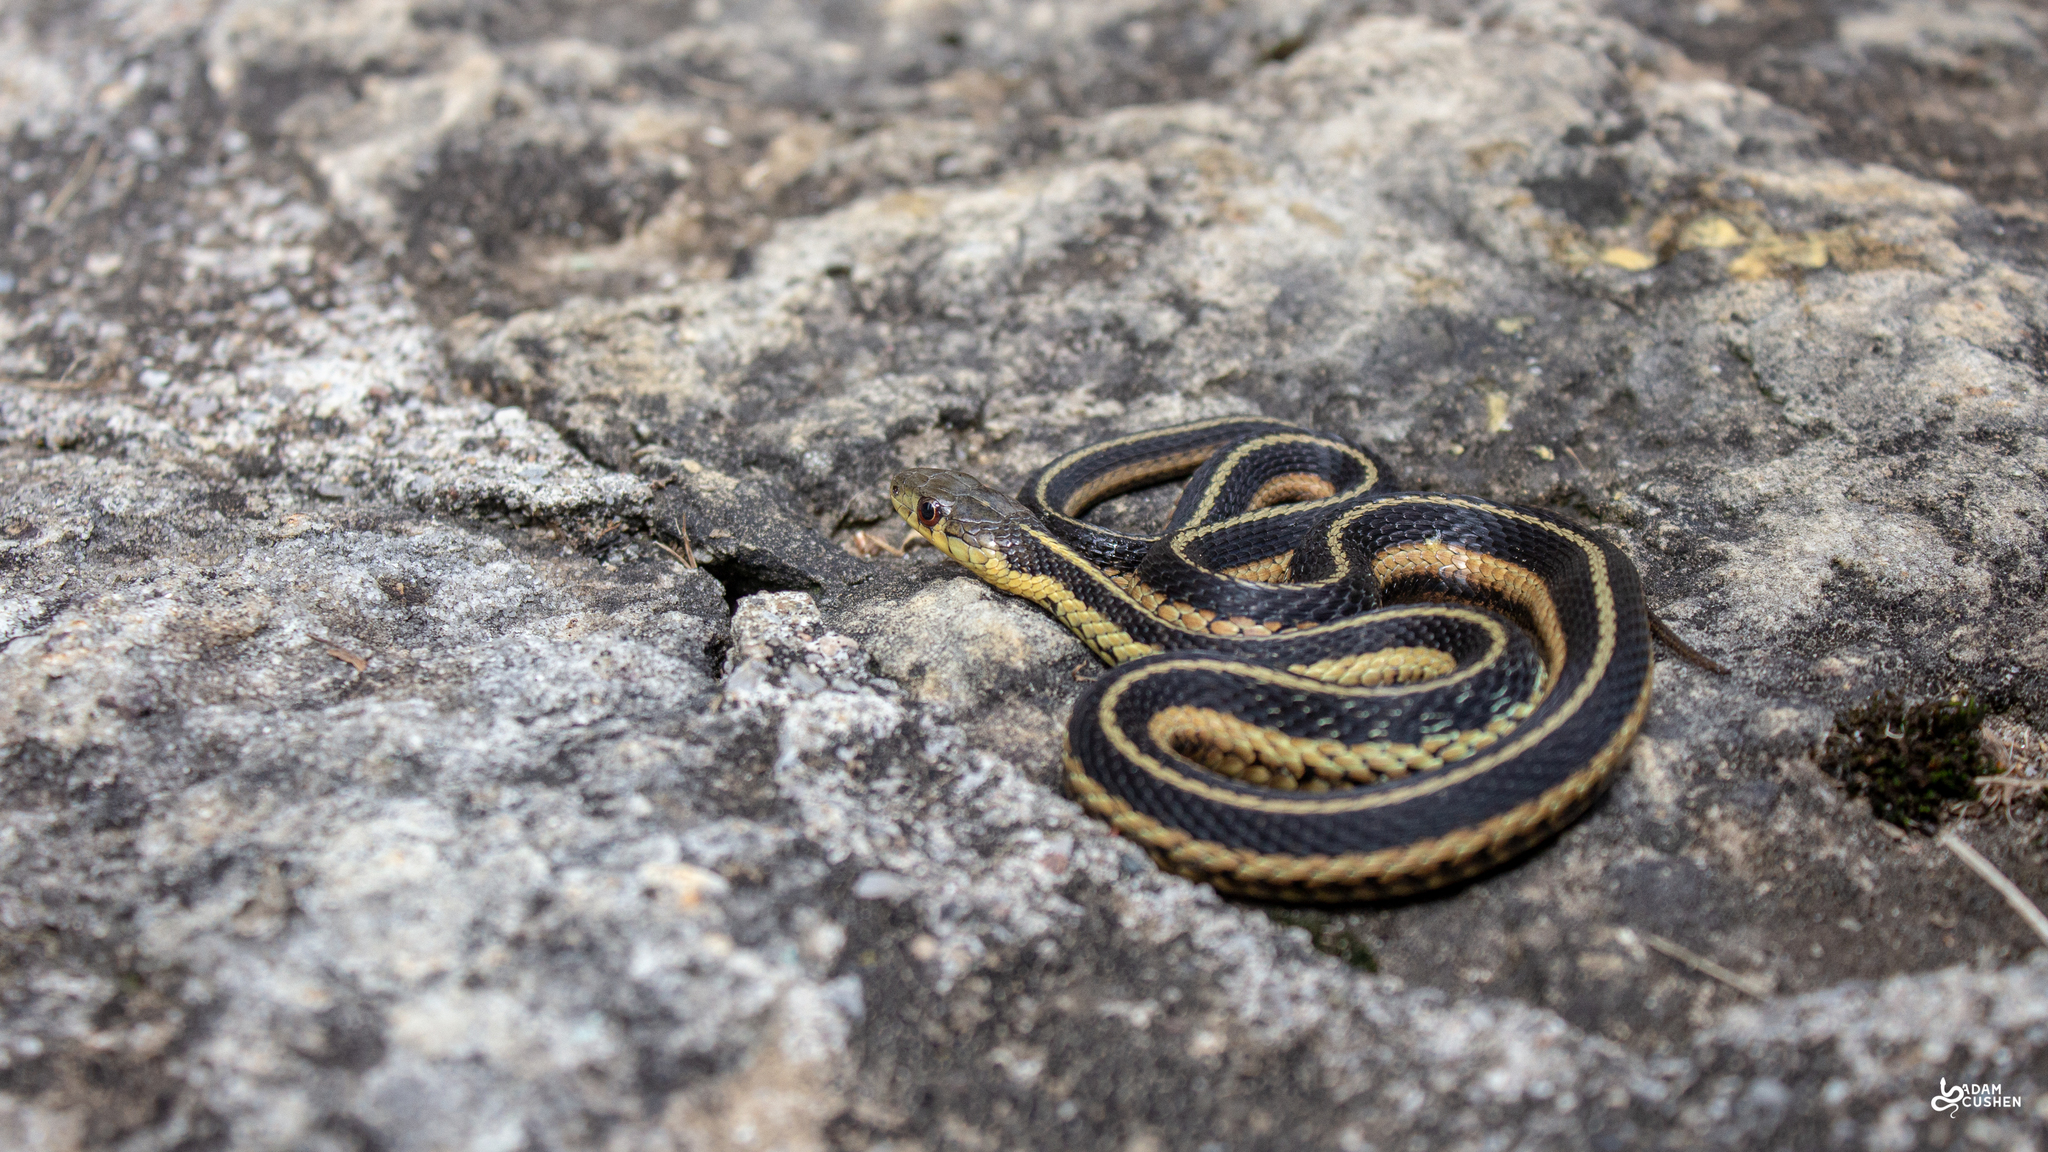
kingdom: Animalia
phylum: Chordata
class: Squamata
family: Colubridae
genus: Thamnophis
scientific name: Thamnophis sirtalis
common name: Common garter snake
